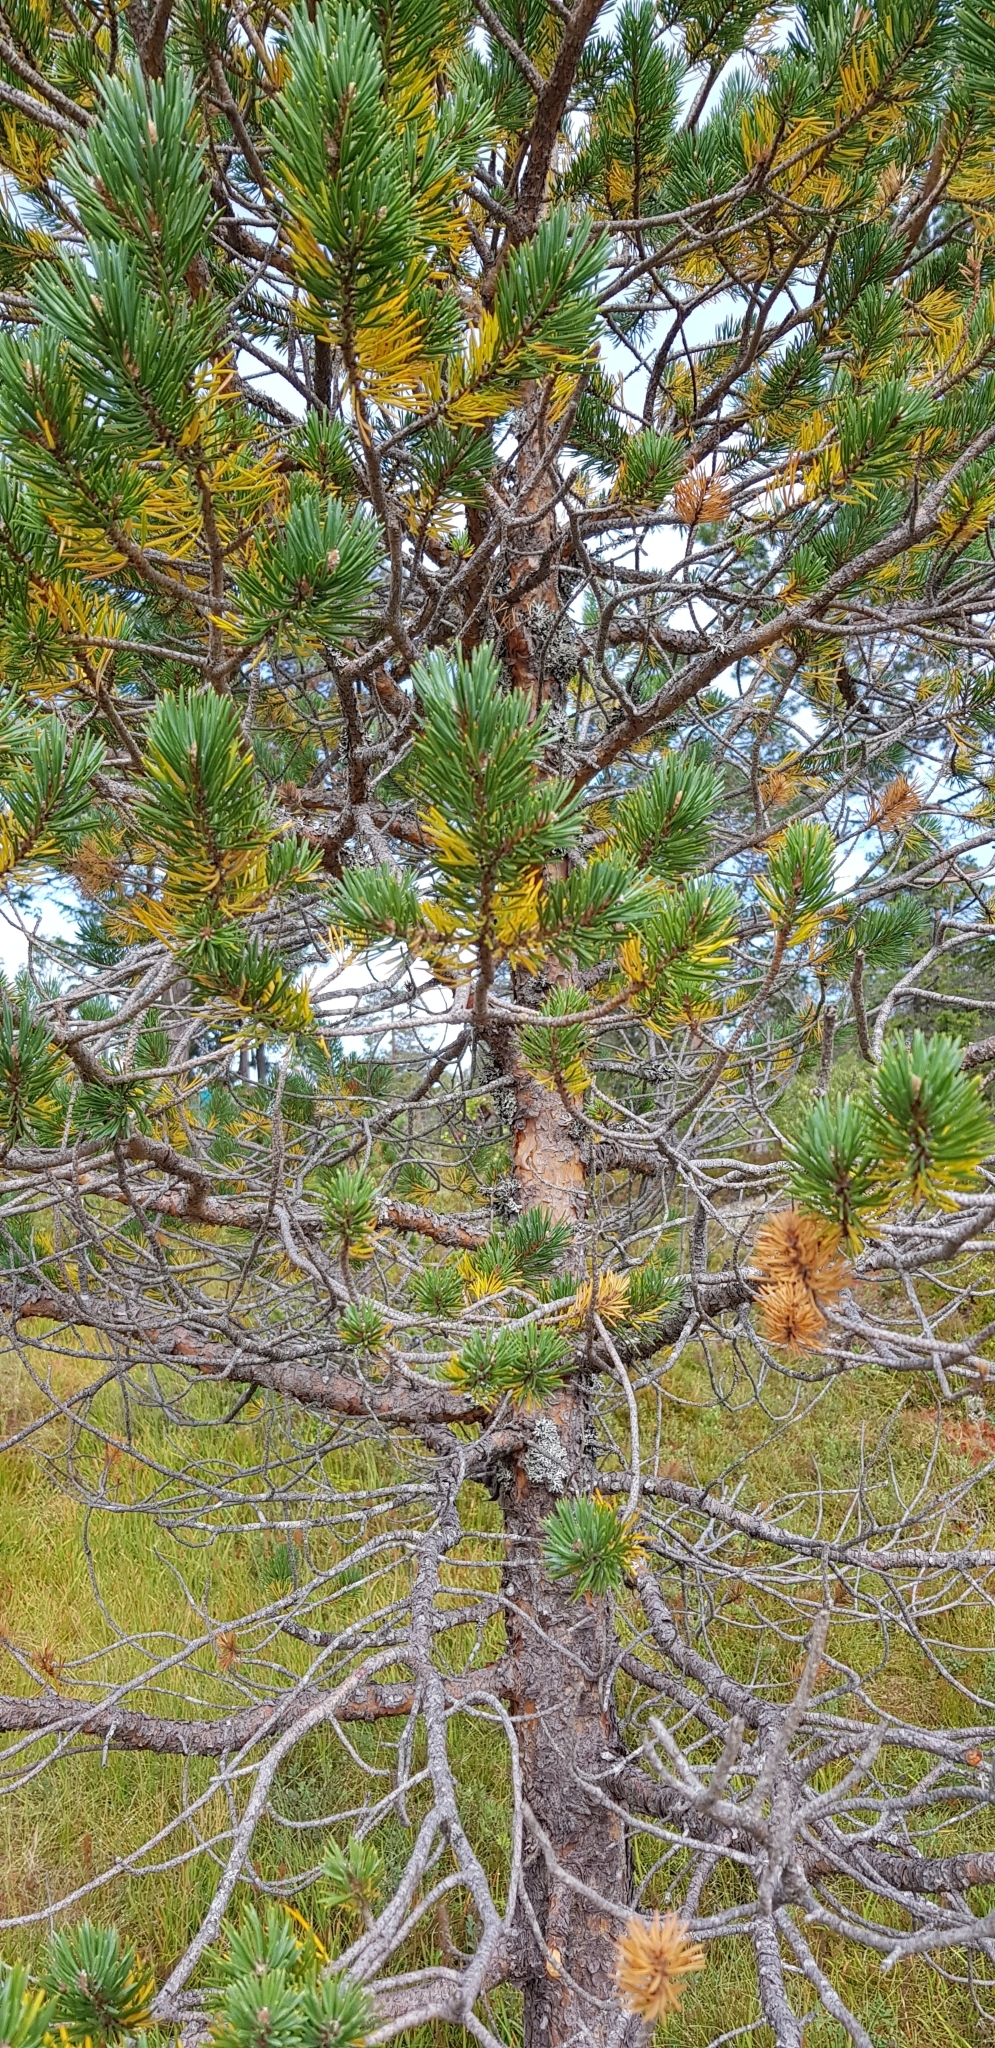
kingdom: Plantae
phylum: Tracheophyta
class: Pinopsida
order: Pinales
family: Pinaceae
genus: Pinus
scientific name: Pinus sylvestris
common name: Scots pine
